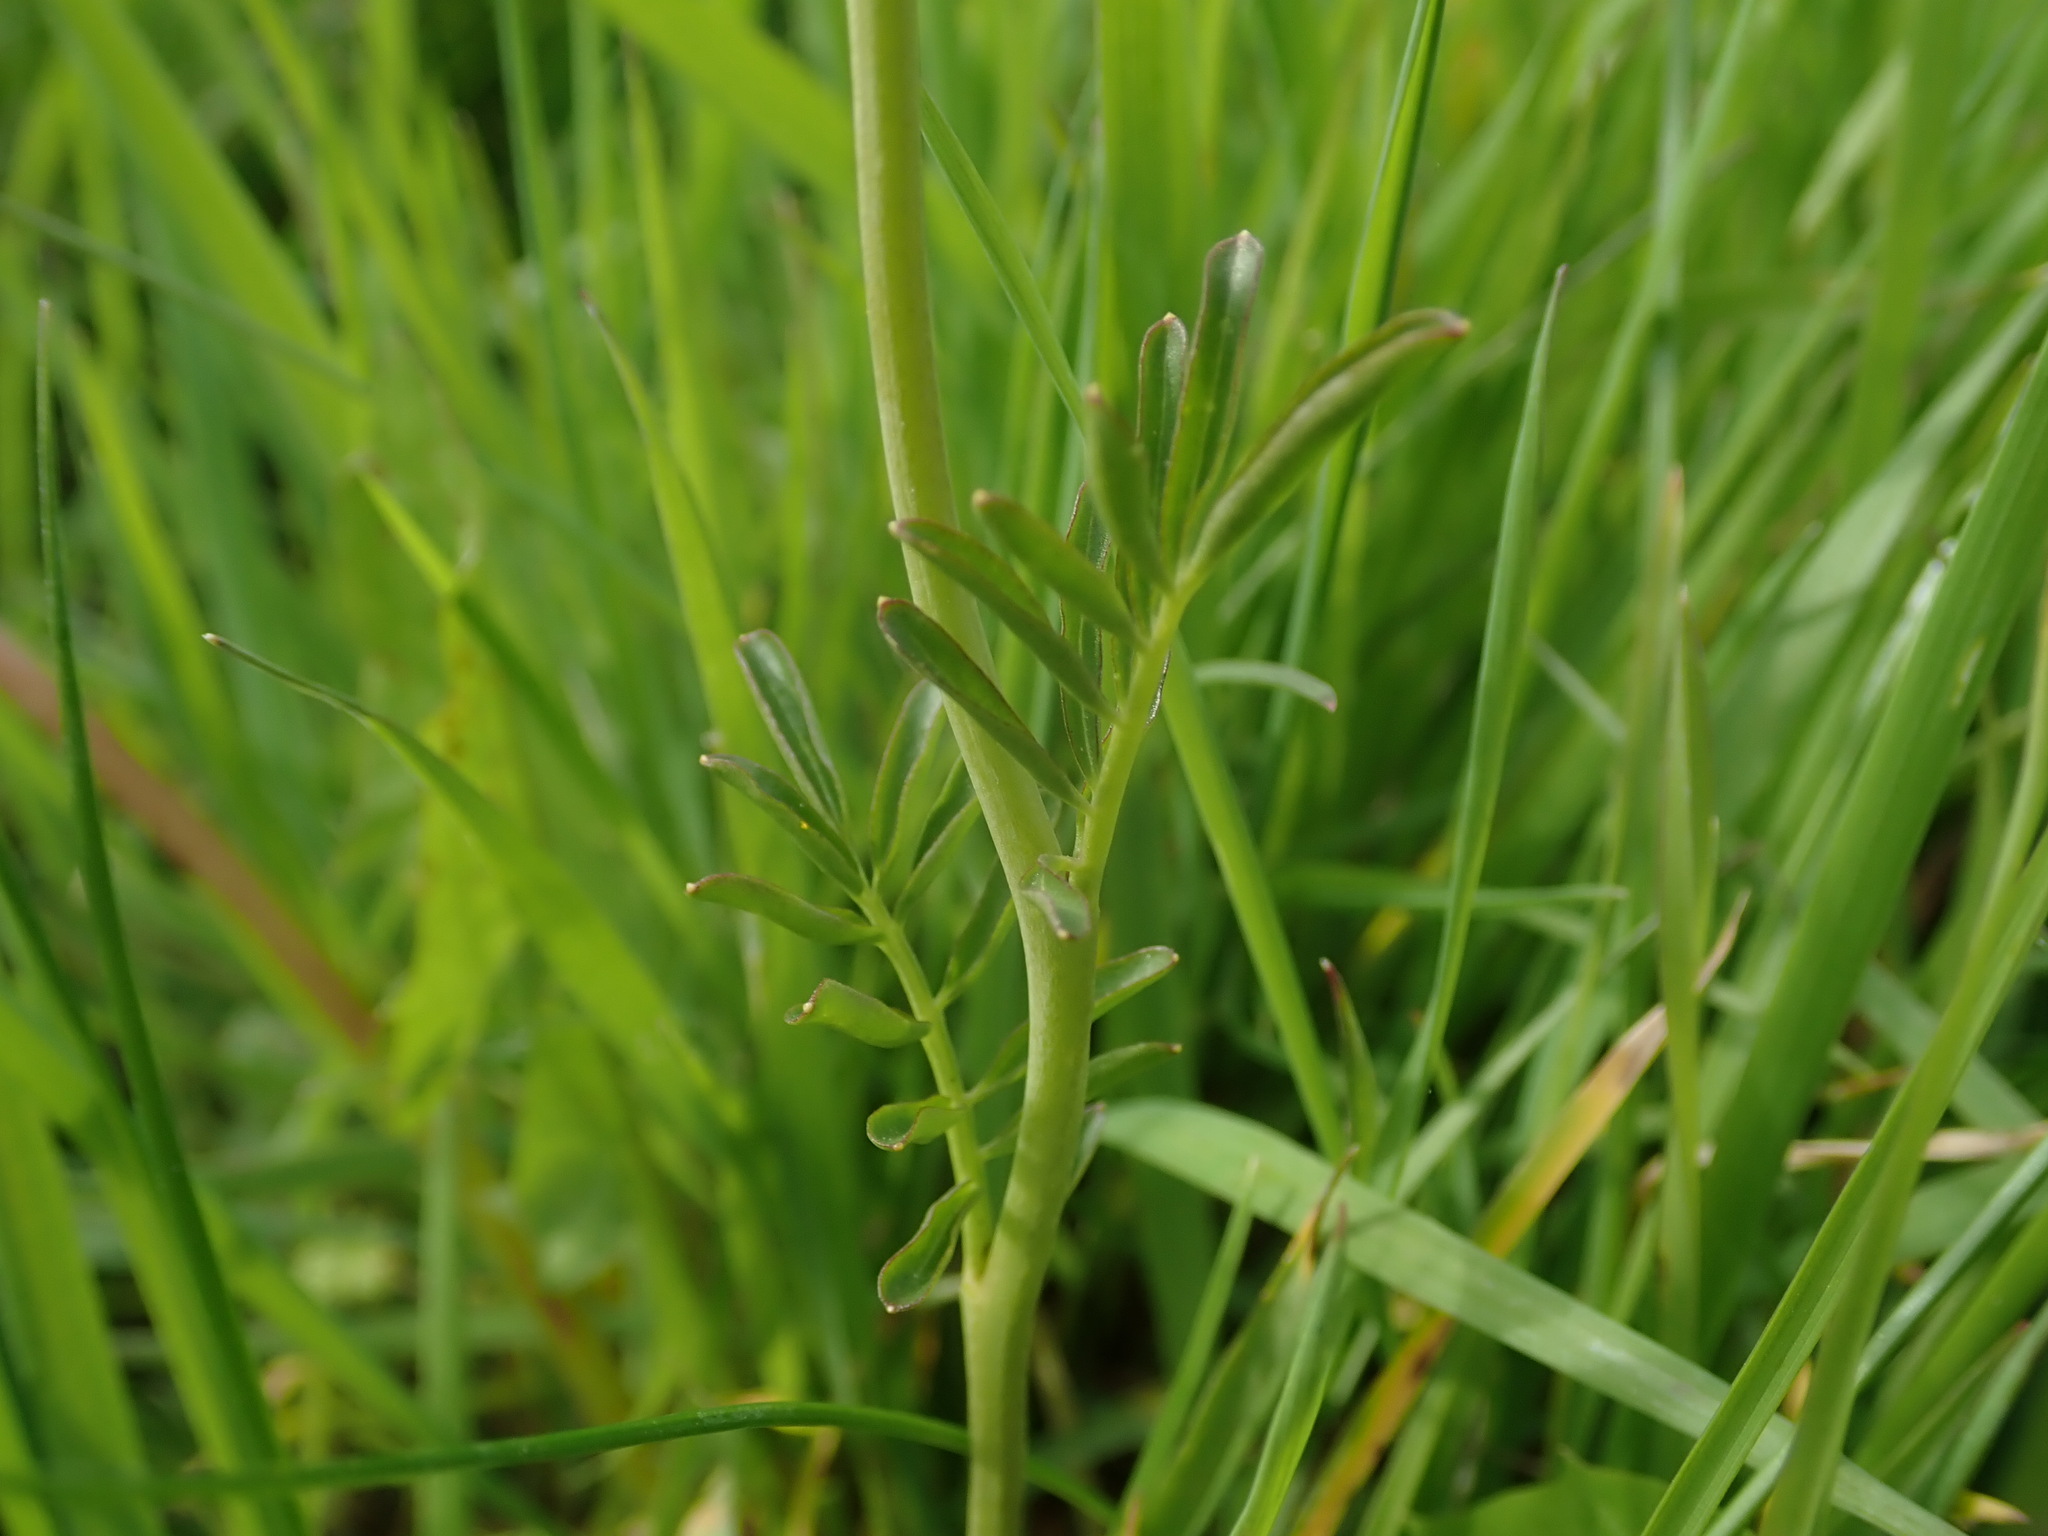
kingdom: Plantae
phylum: Tracheophyta
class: Magnoliopsida
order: Brassicales
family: Brassicaceae
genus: Cardamine
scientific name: Cardamine pratensis
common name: Cuckoo flower
